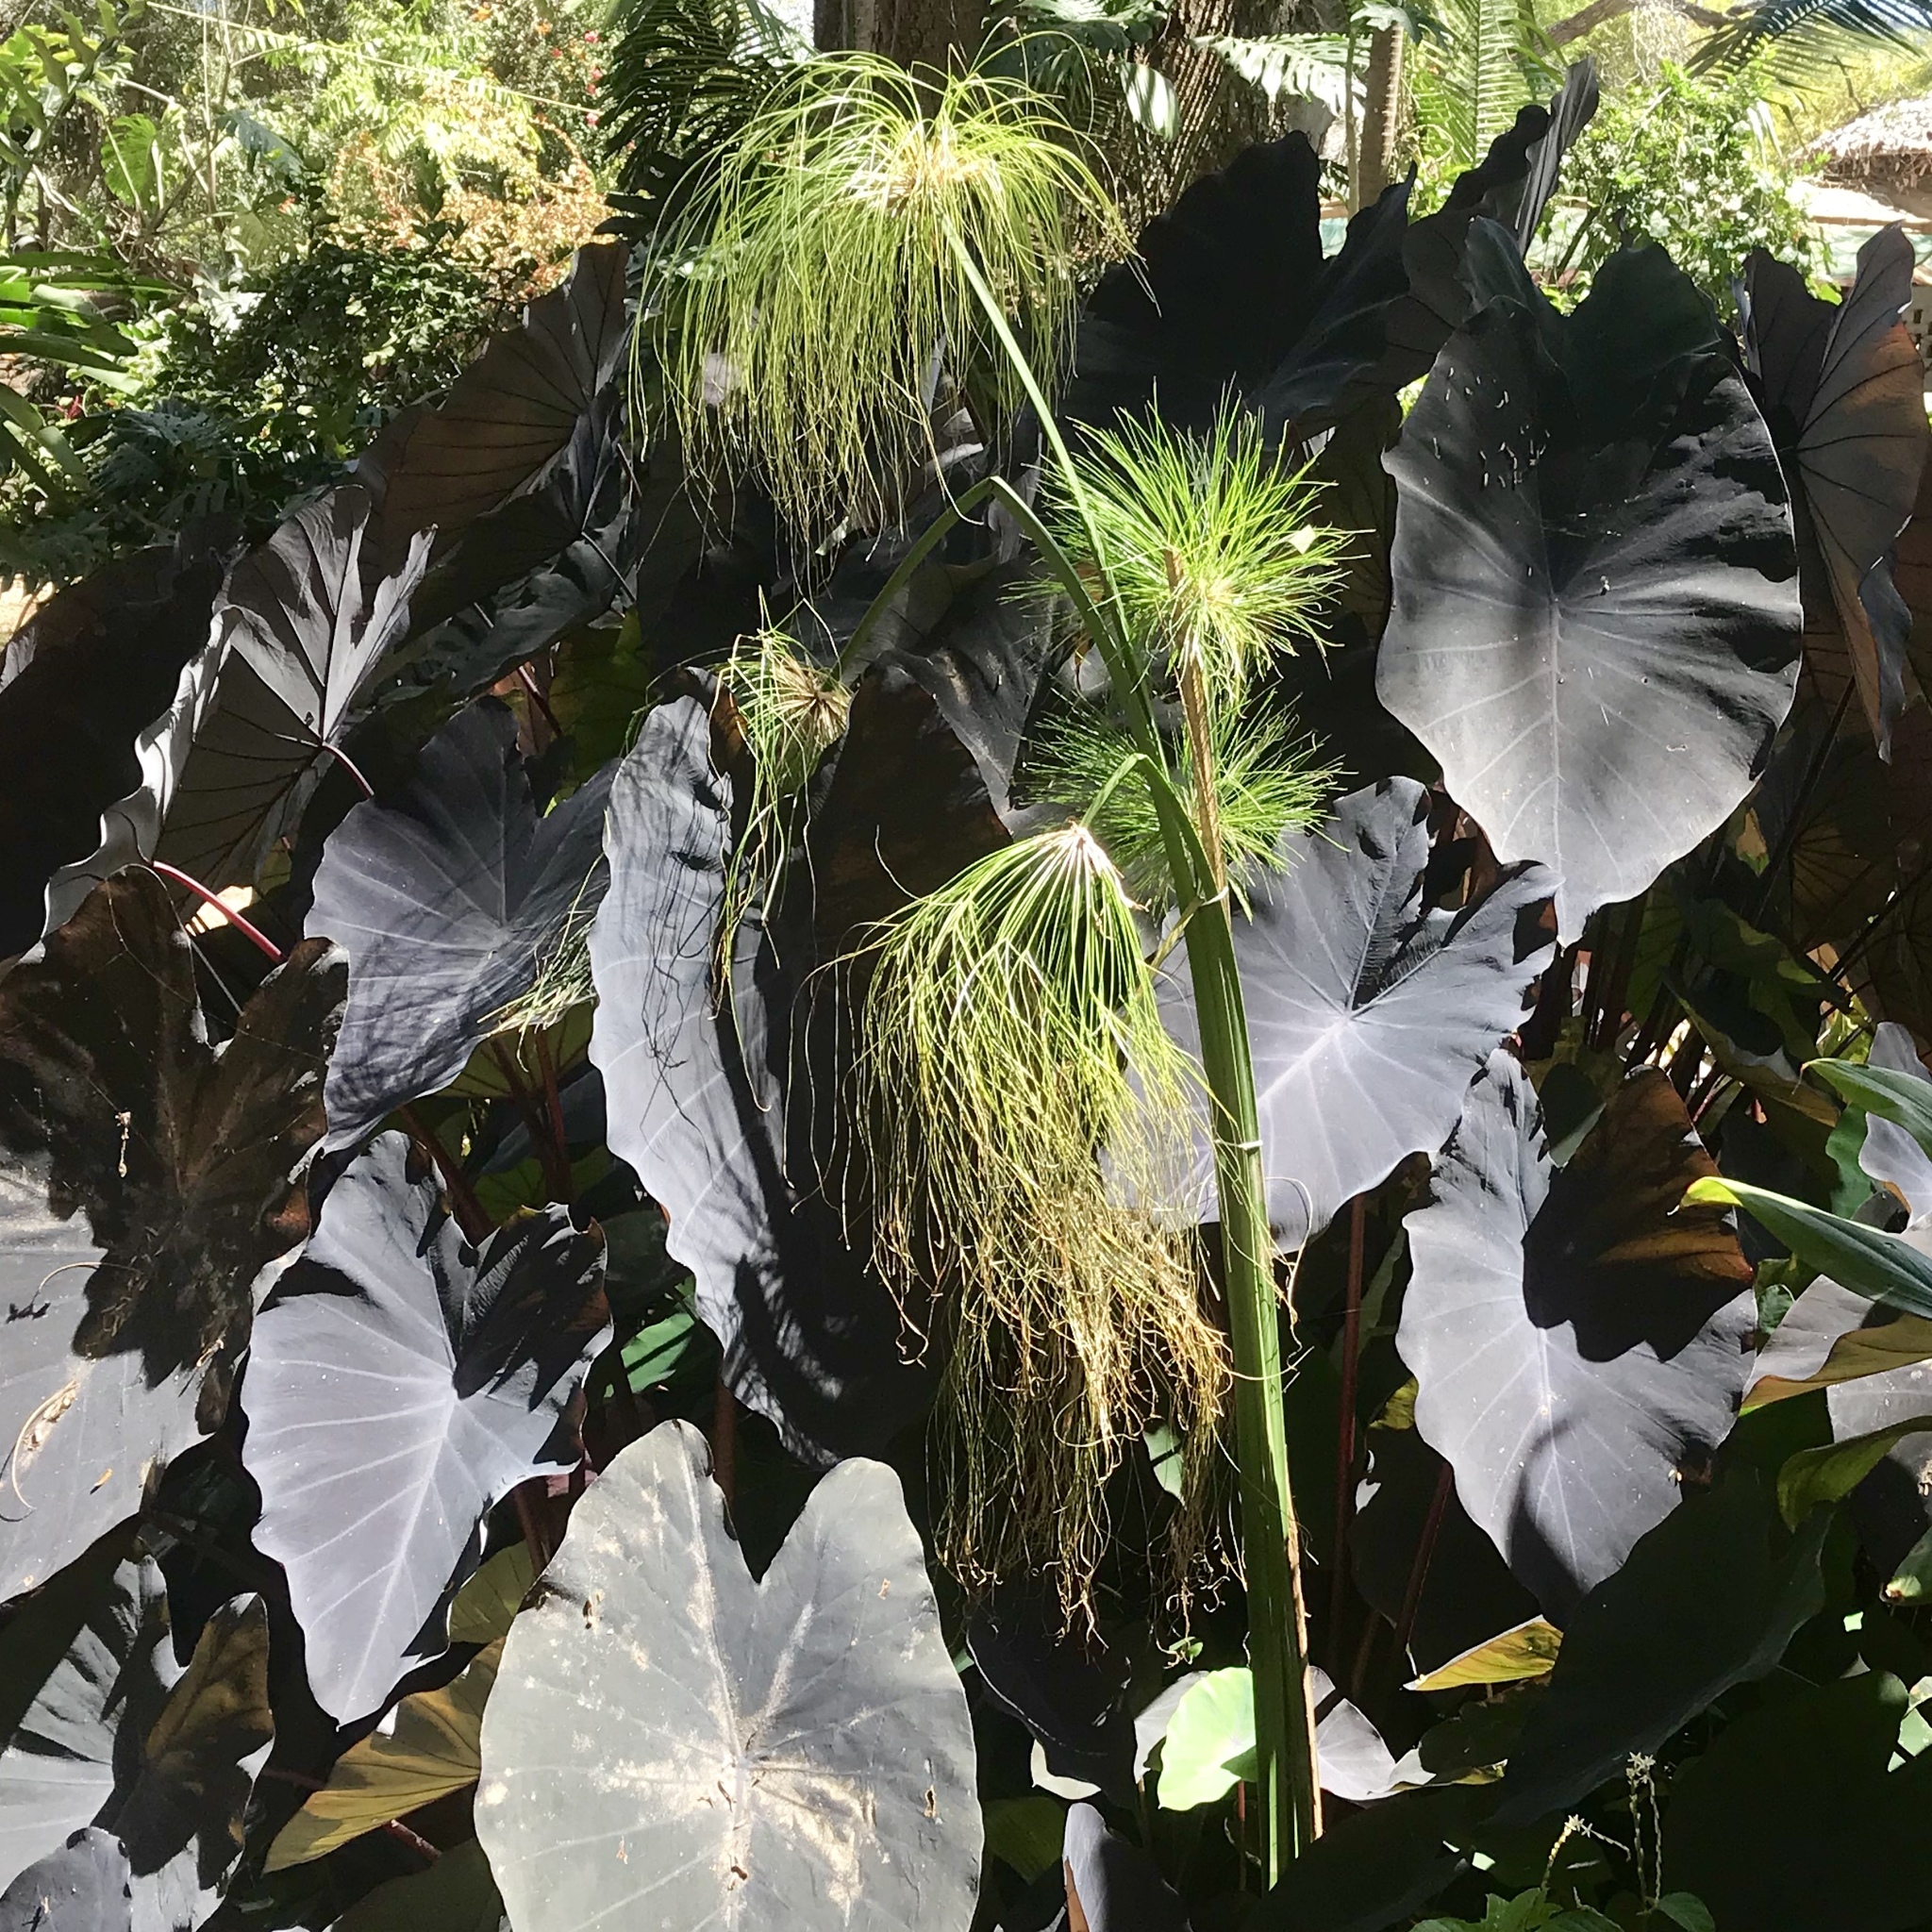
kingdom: Plantae
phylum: Tracheophyta
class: Liliopsida
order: Poales
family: Cyperaceae
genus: Cyperus
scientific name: Cyperus papyrus
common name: Papyrus
